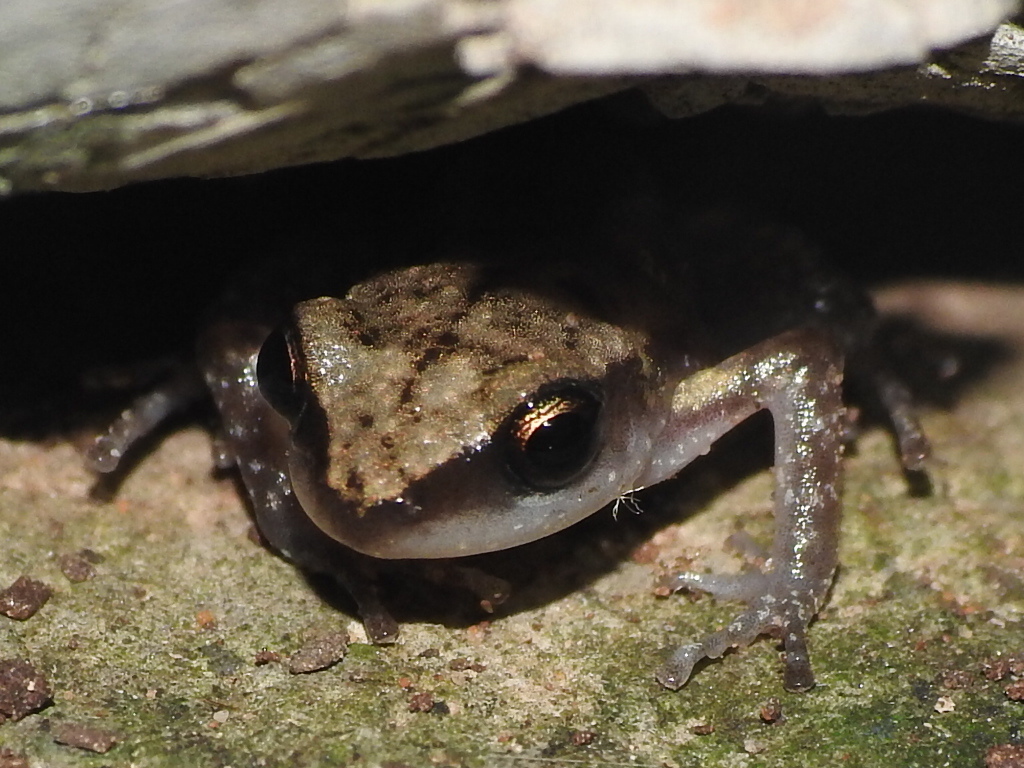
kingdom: Animalia
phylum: Chordata
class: Amphibia
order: Anura
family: Eleutherodactylidae
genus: Eleutherodactylus
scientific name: Eleutherodactylus campi
